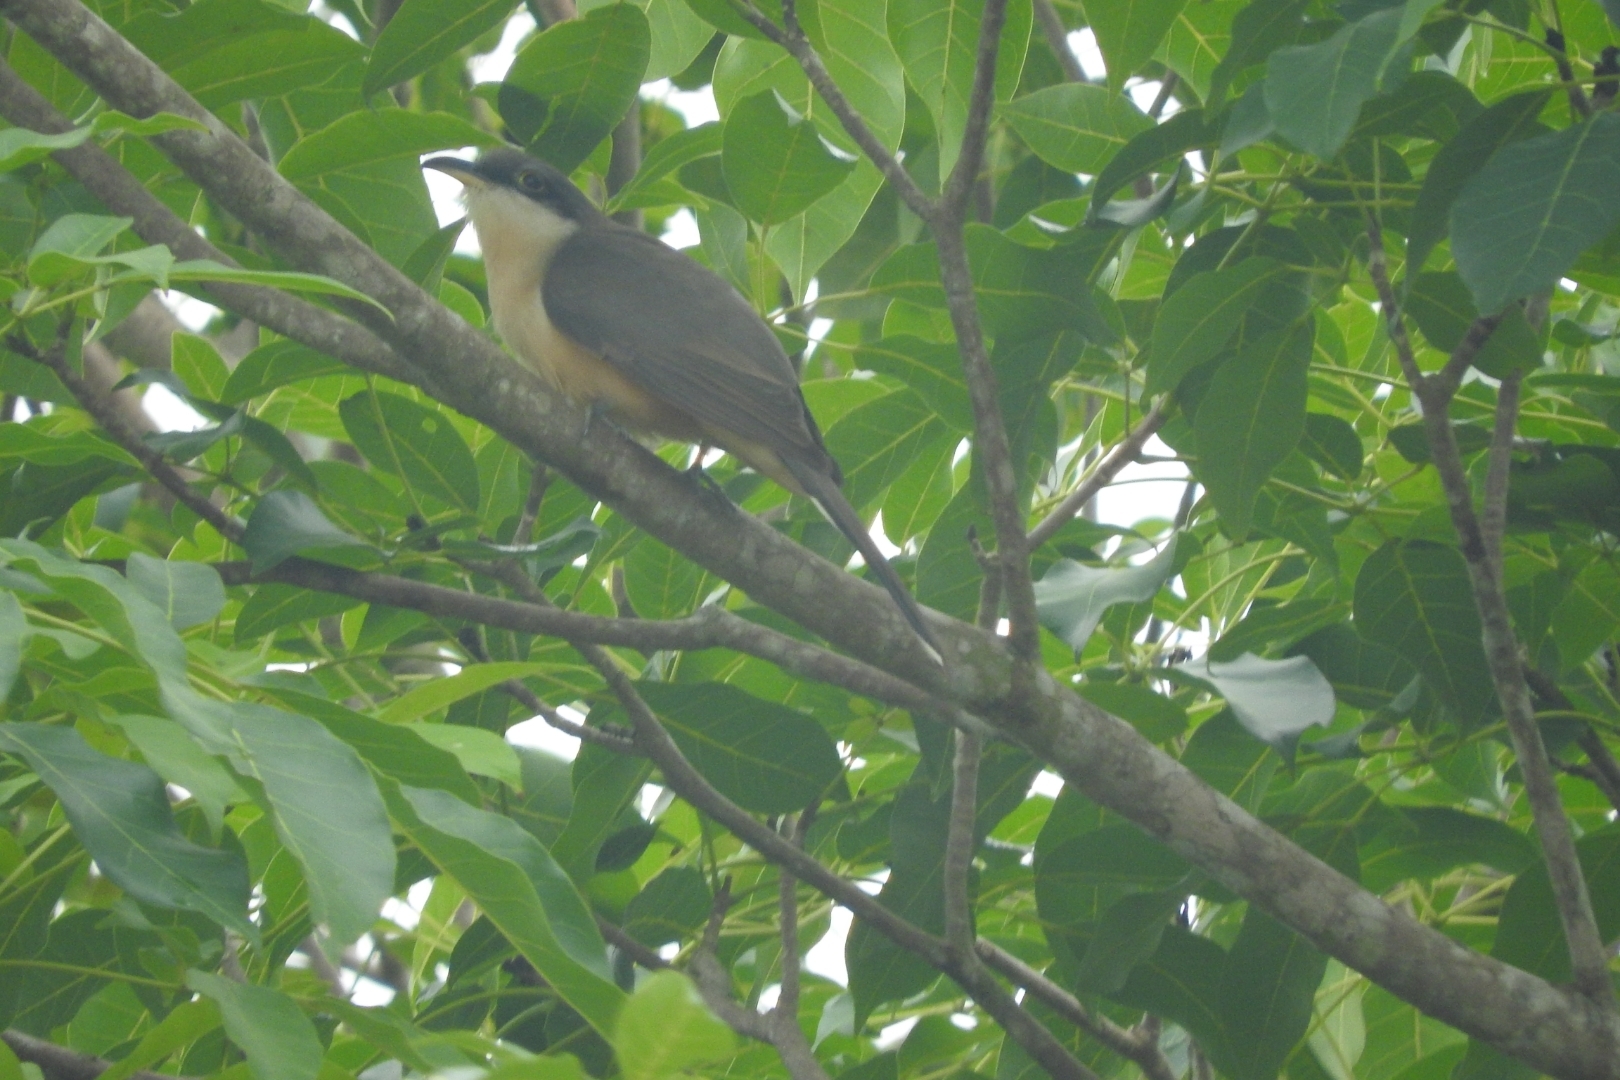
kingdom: Animalia
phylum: Chordata
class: Aves
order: Cuculiformes
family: Cuculidae
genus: Coccyzus
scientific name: Coccyzus minor
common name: Mangrove cuckoo
